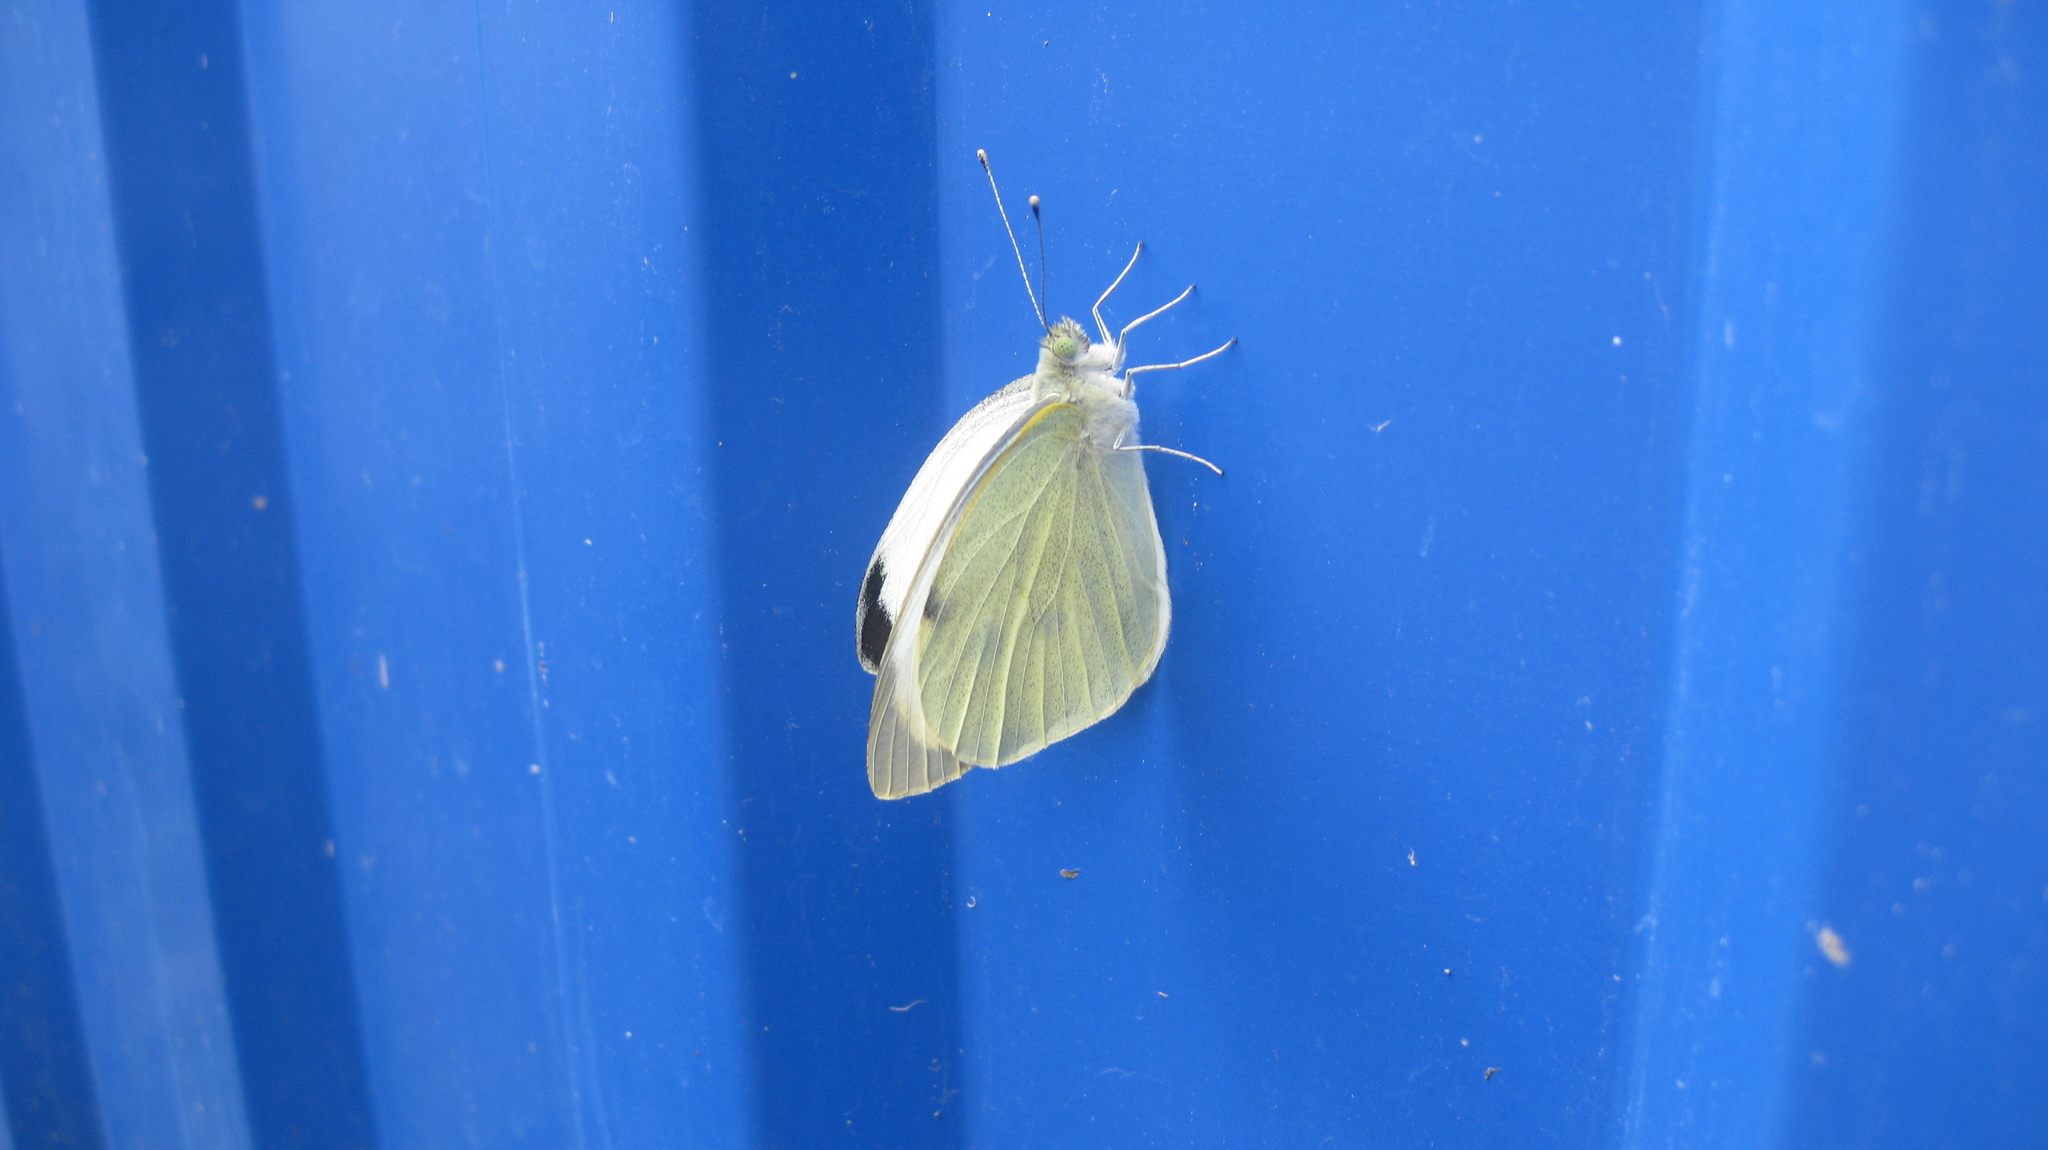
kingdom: Animalia
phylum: Arthropoda
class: Insecta
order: Lepidoptera
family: Pieridae
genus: Pieris
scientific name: Pieris brassicae
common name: Large white
